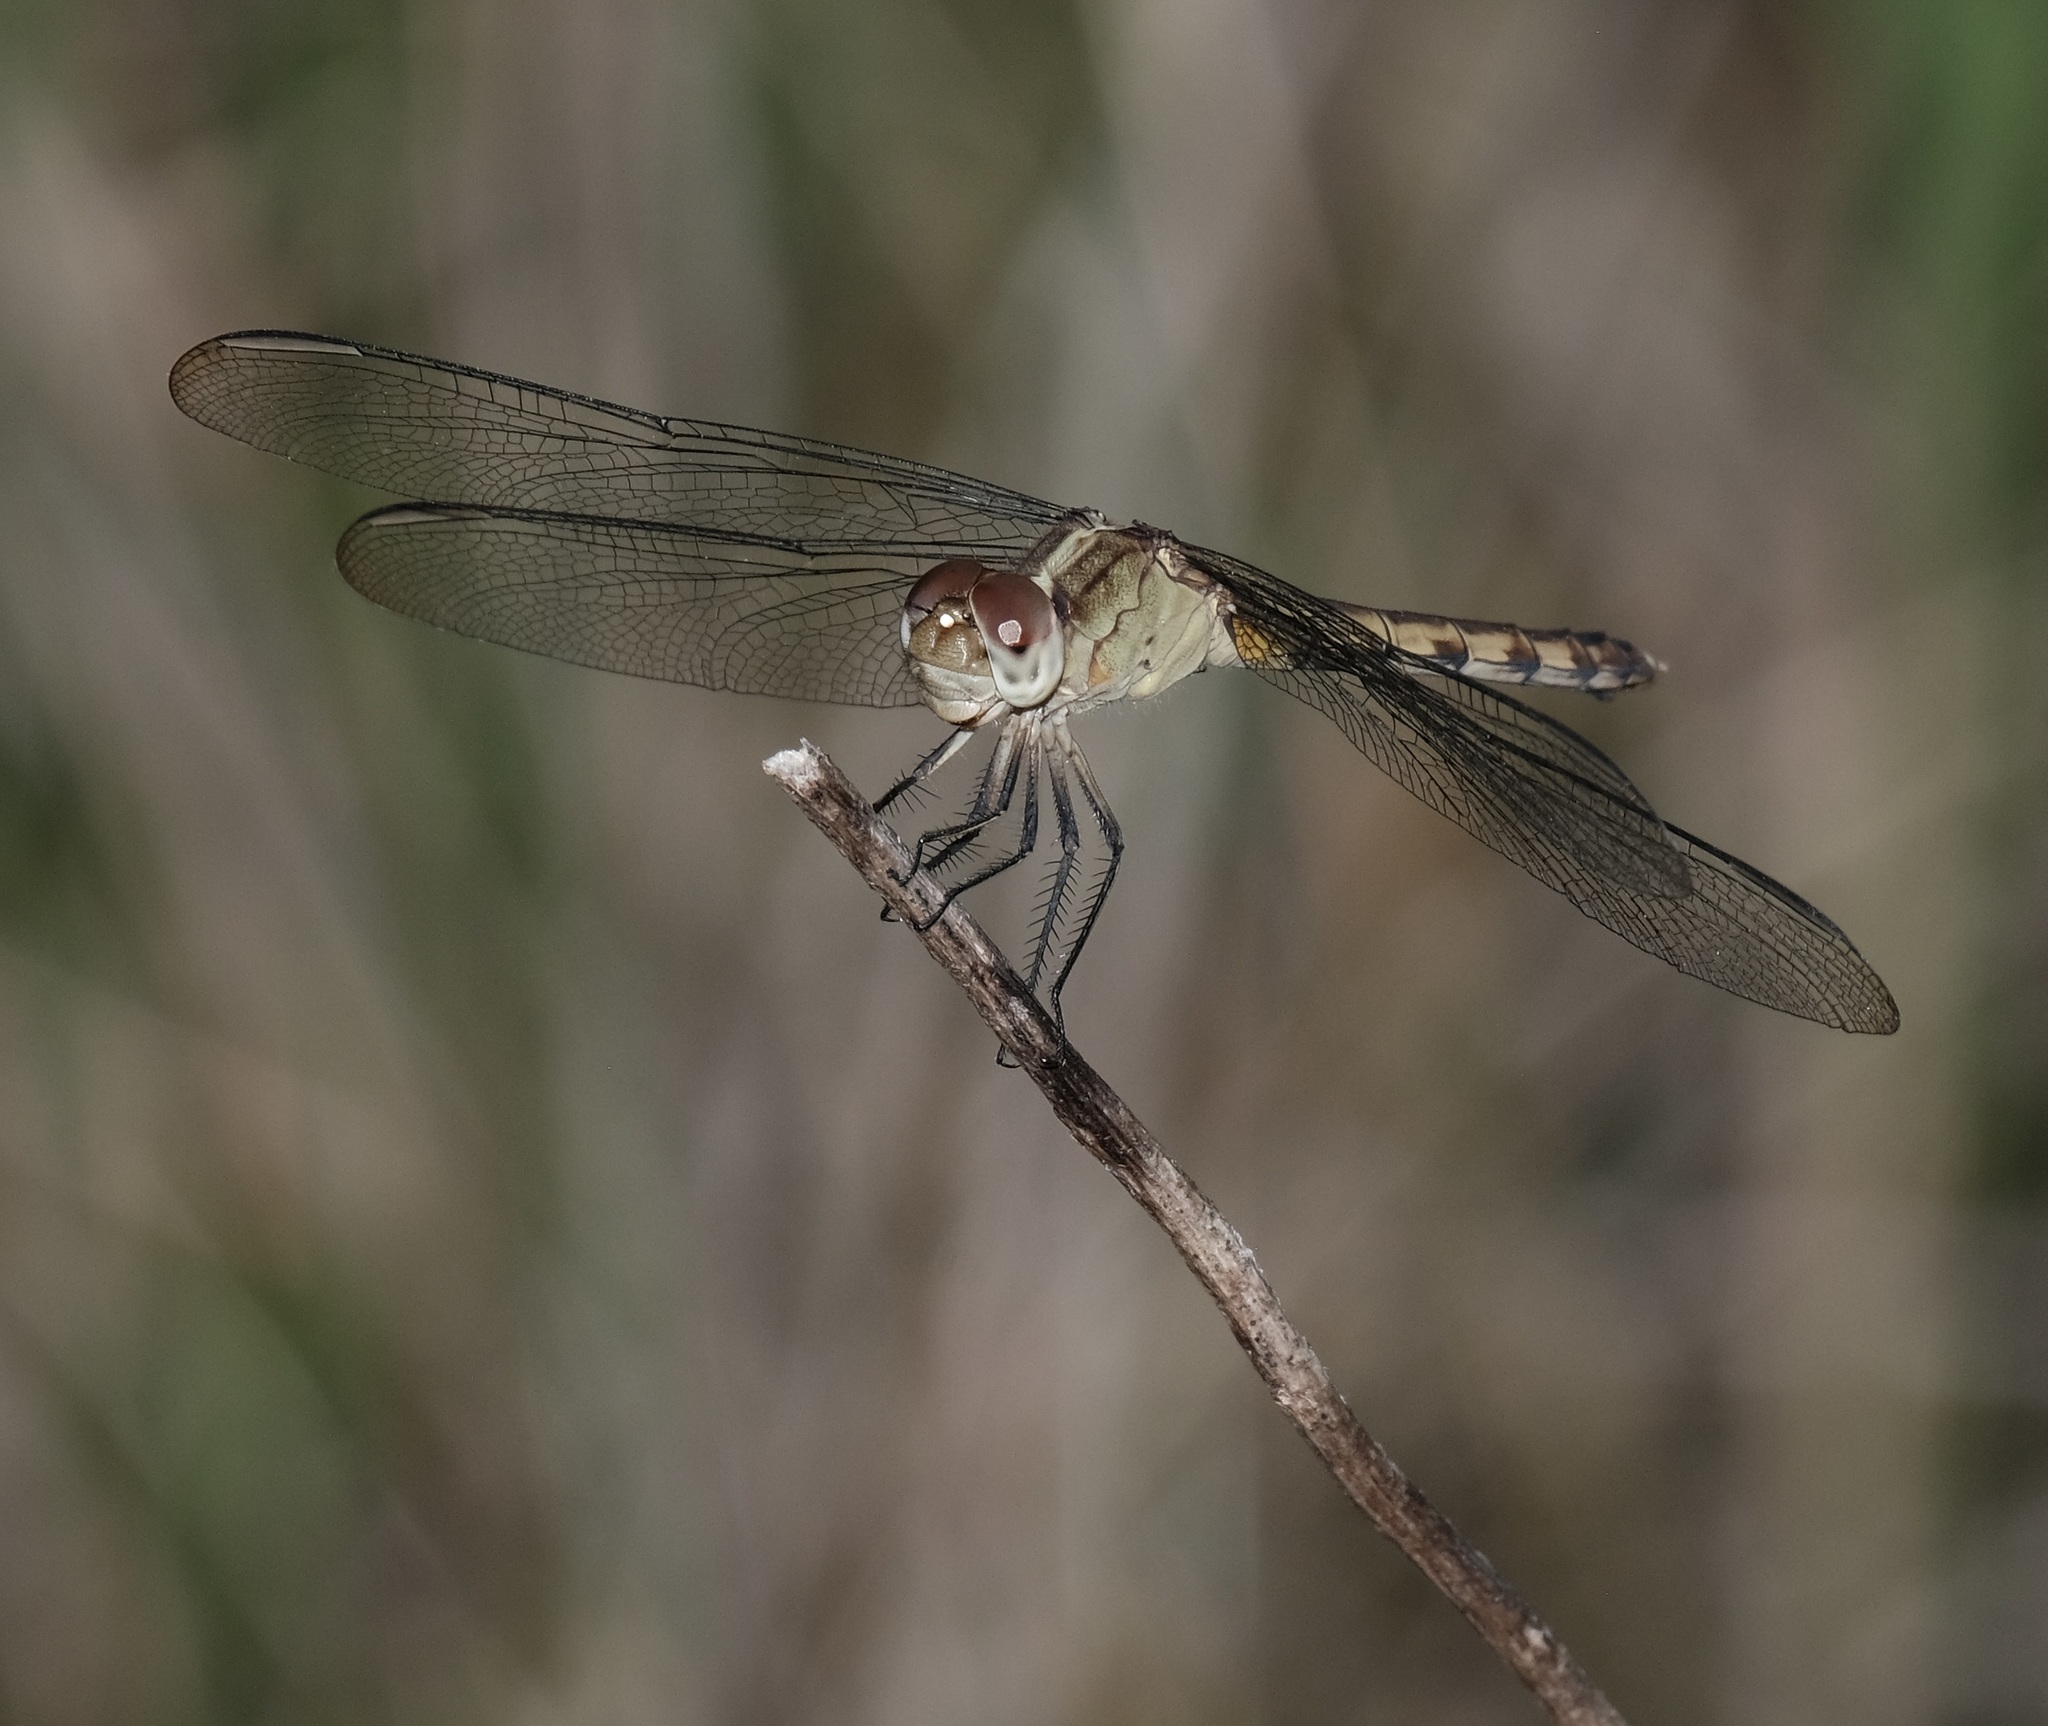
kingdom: Animalia
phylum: Arthropoda
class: Insecta
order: Odonata
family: Libellulidae
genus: Erythrodiplax
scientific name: Erythrodiplax umbrata
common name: Band-winged dragonlet
